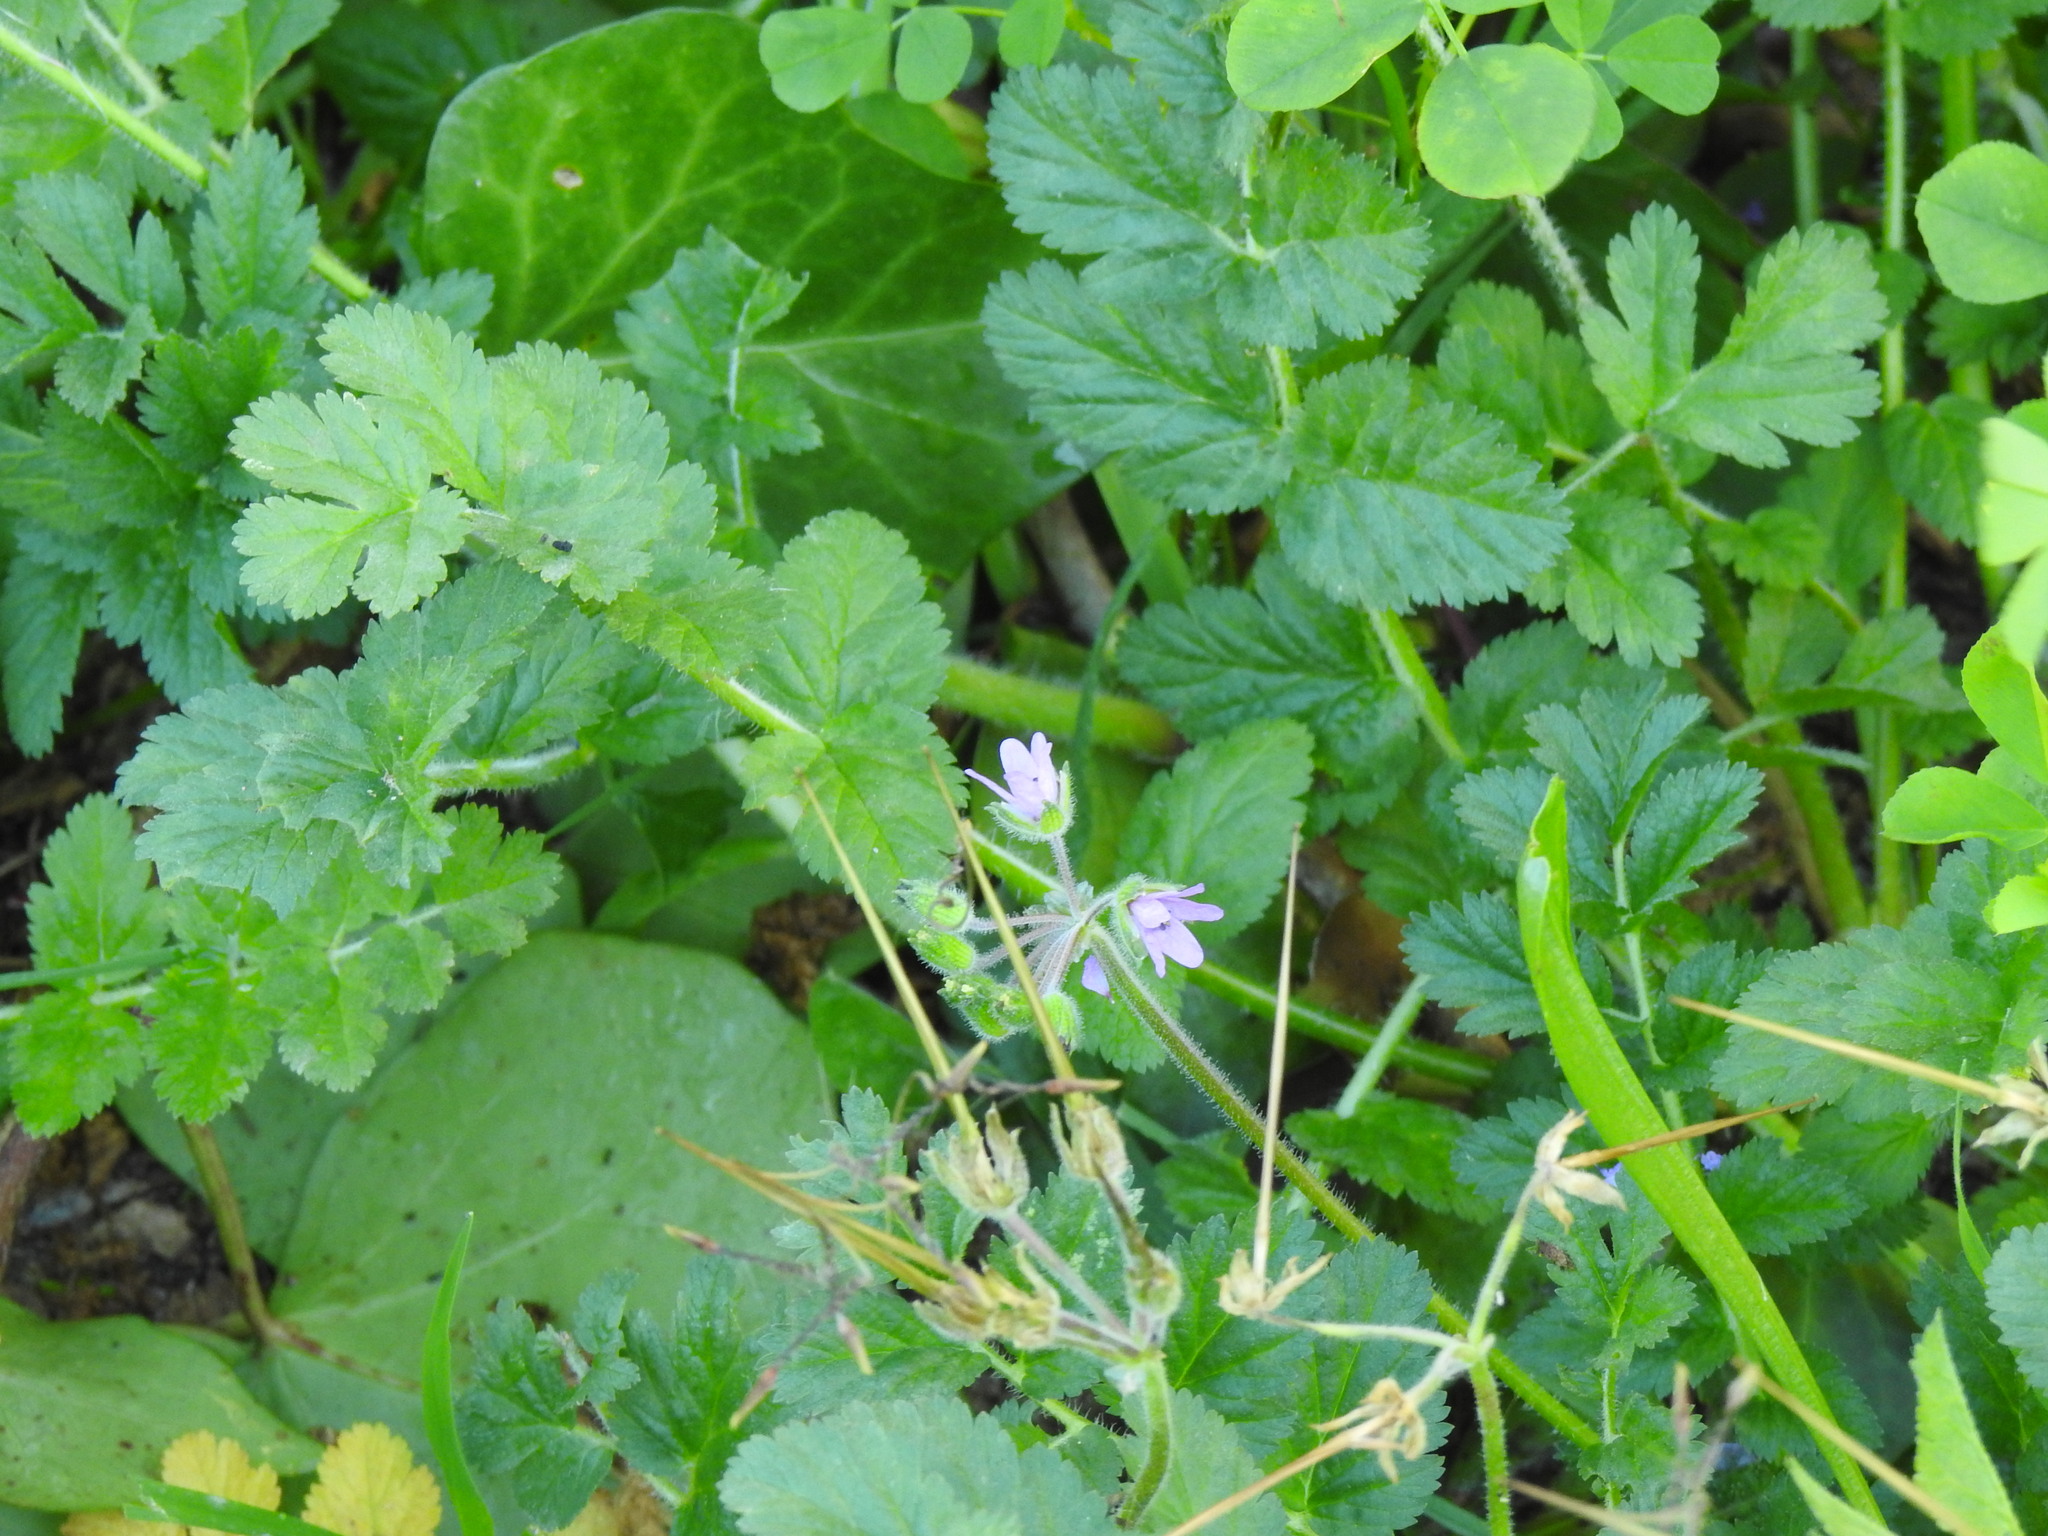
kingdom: Plantae
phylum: Tracheophyta
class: Magnoliopsida
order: Geraniales
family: Geraniaceae
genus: Erodium
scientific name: Erodium moschatum
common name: Musk stork's-bill
